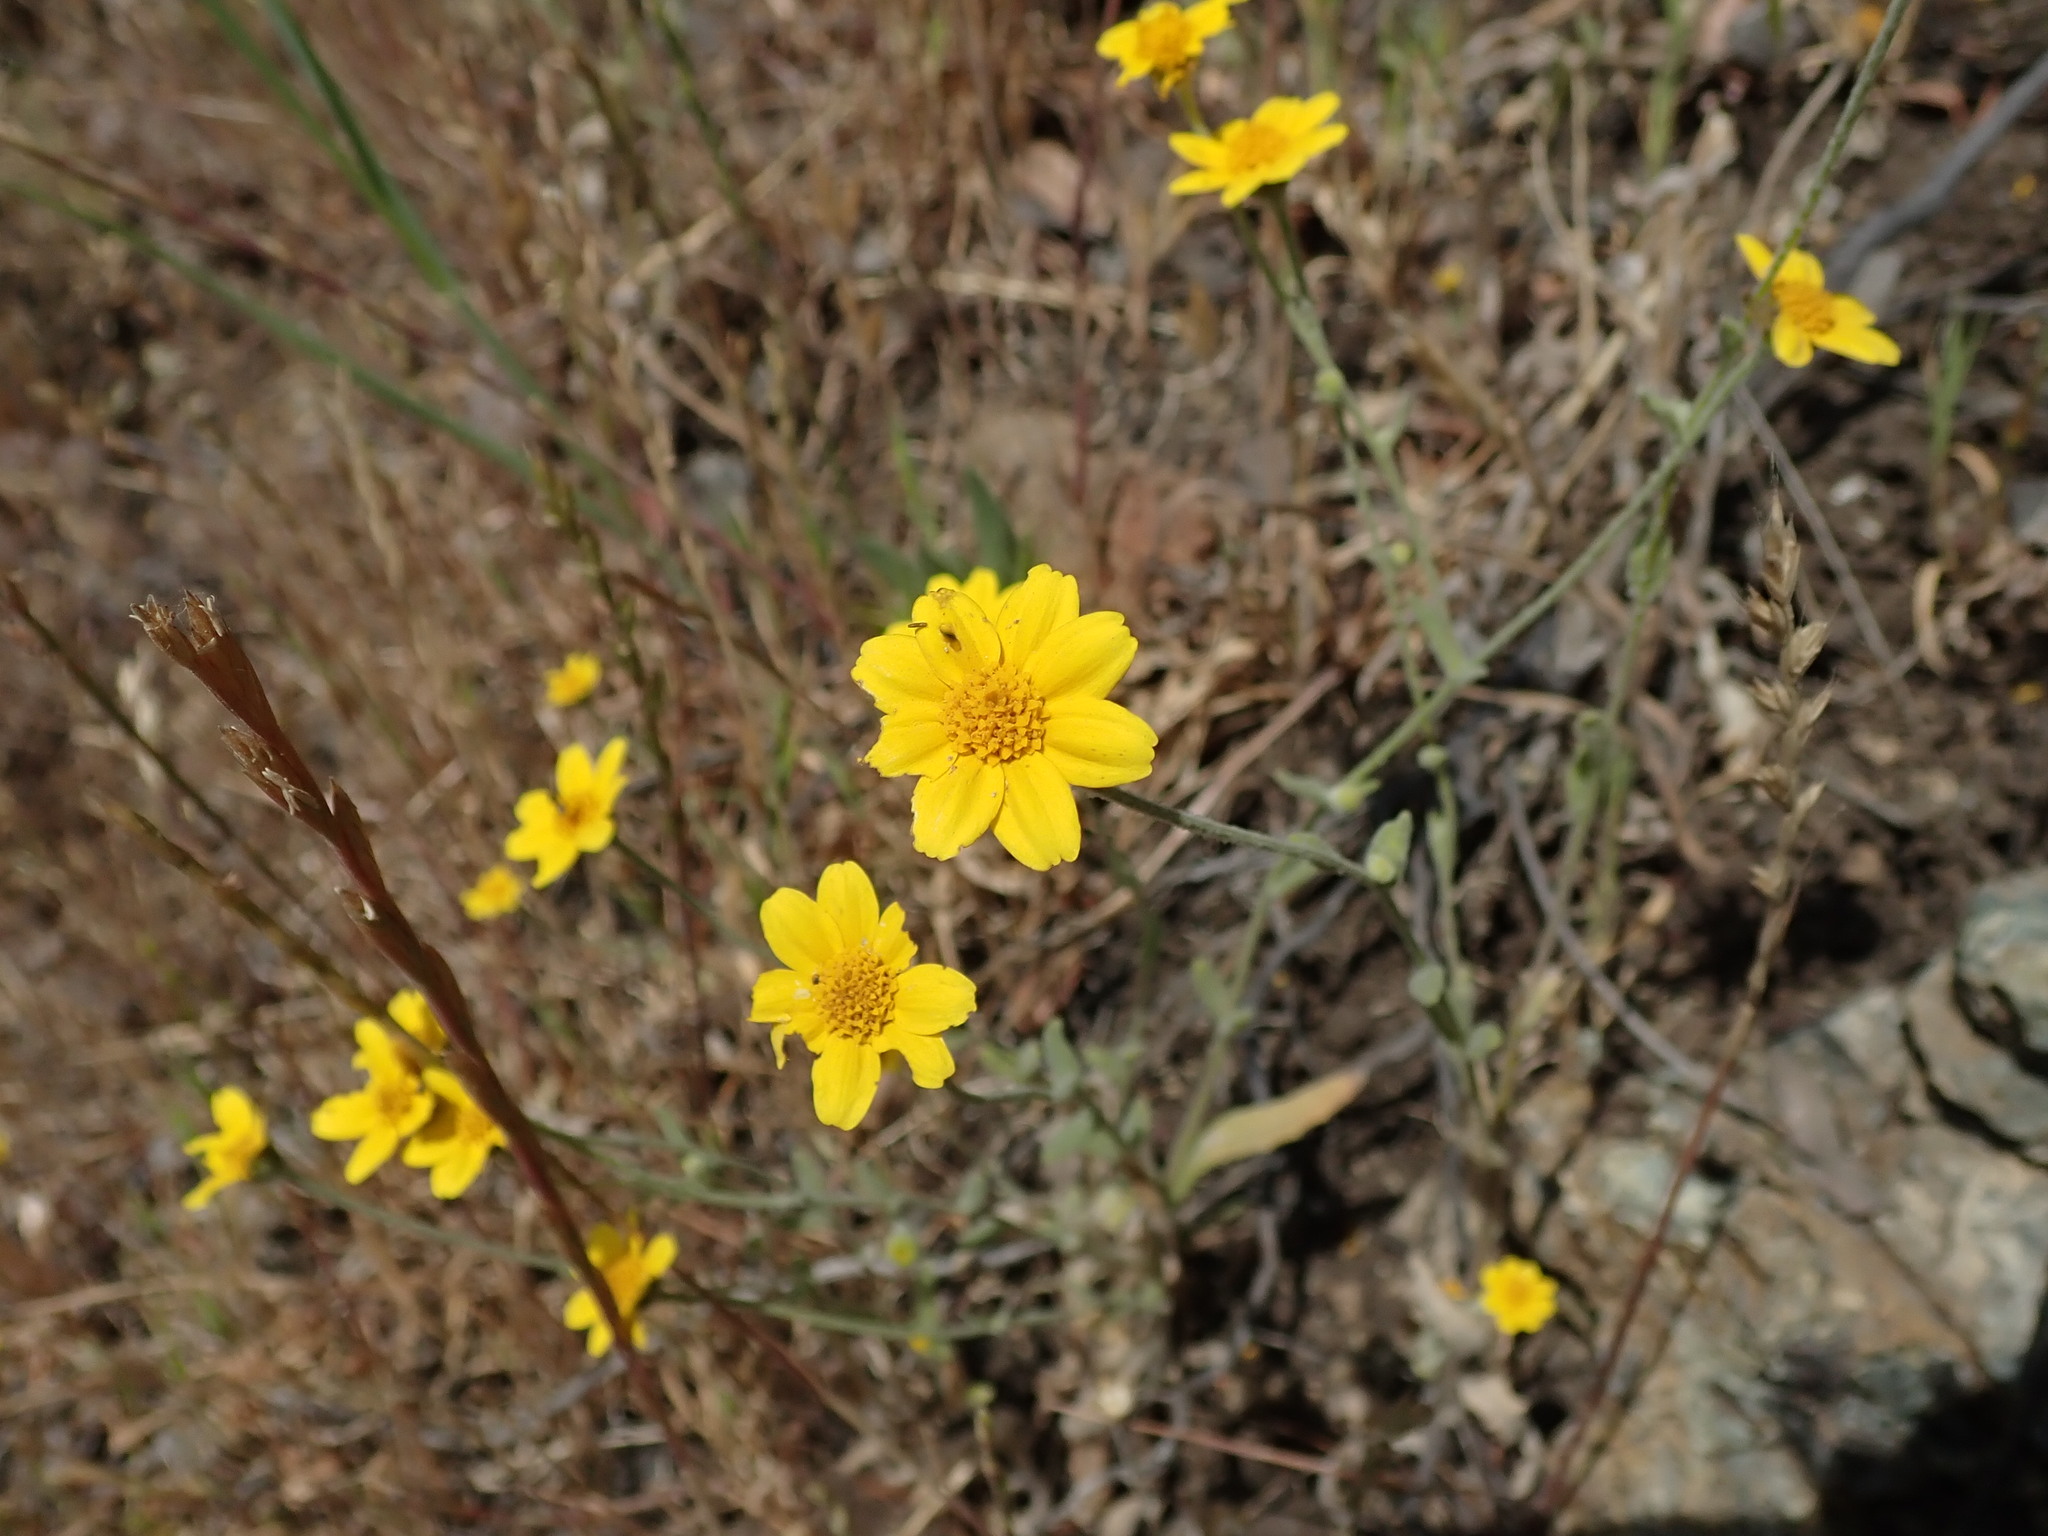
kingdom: Plantae
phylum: Tracheophyta
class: Magnoliopsida
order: Asterales
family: Asteraceae
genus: Monolopia
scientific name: Monolopia gracilens
